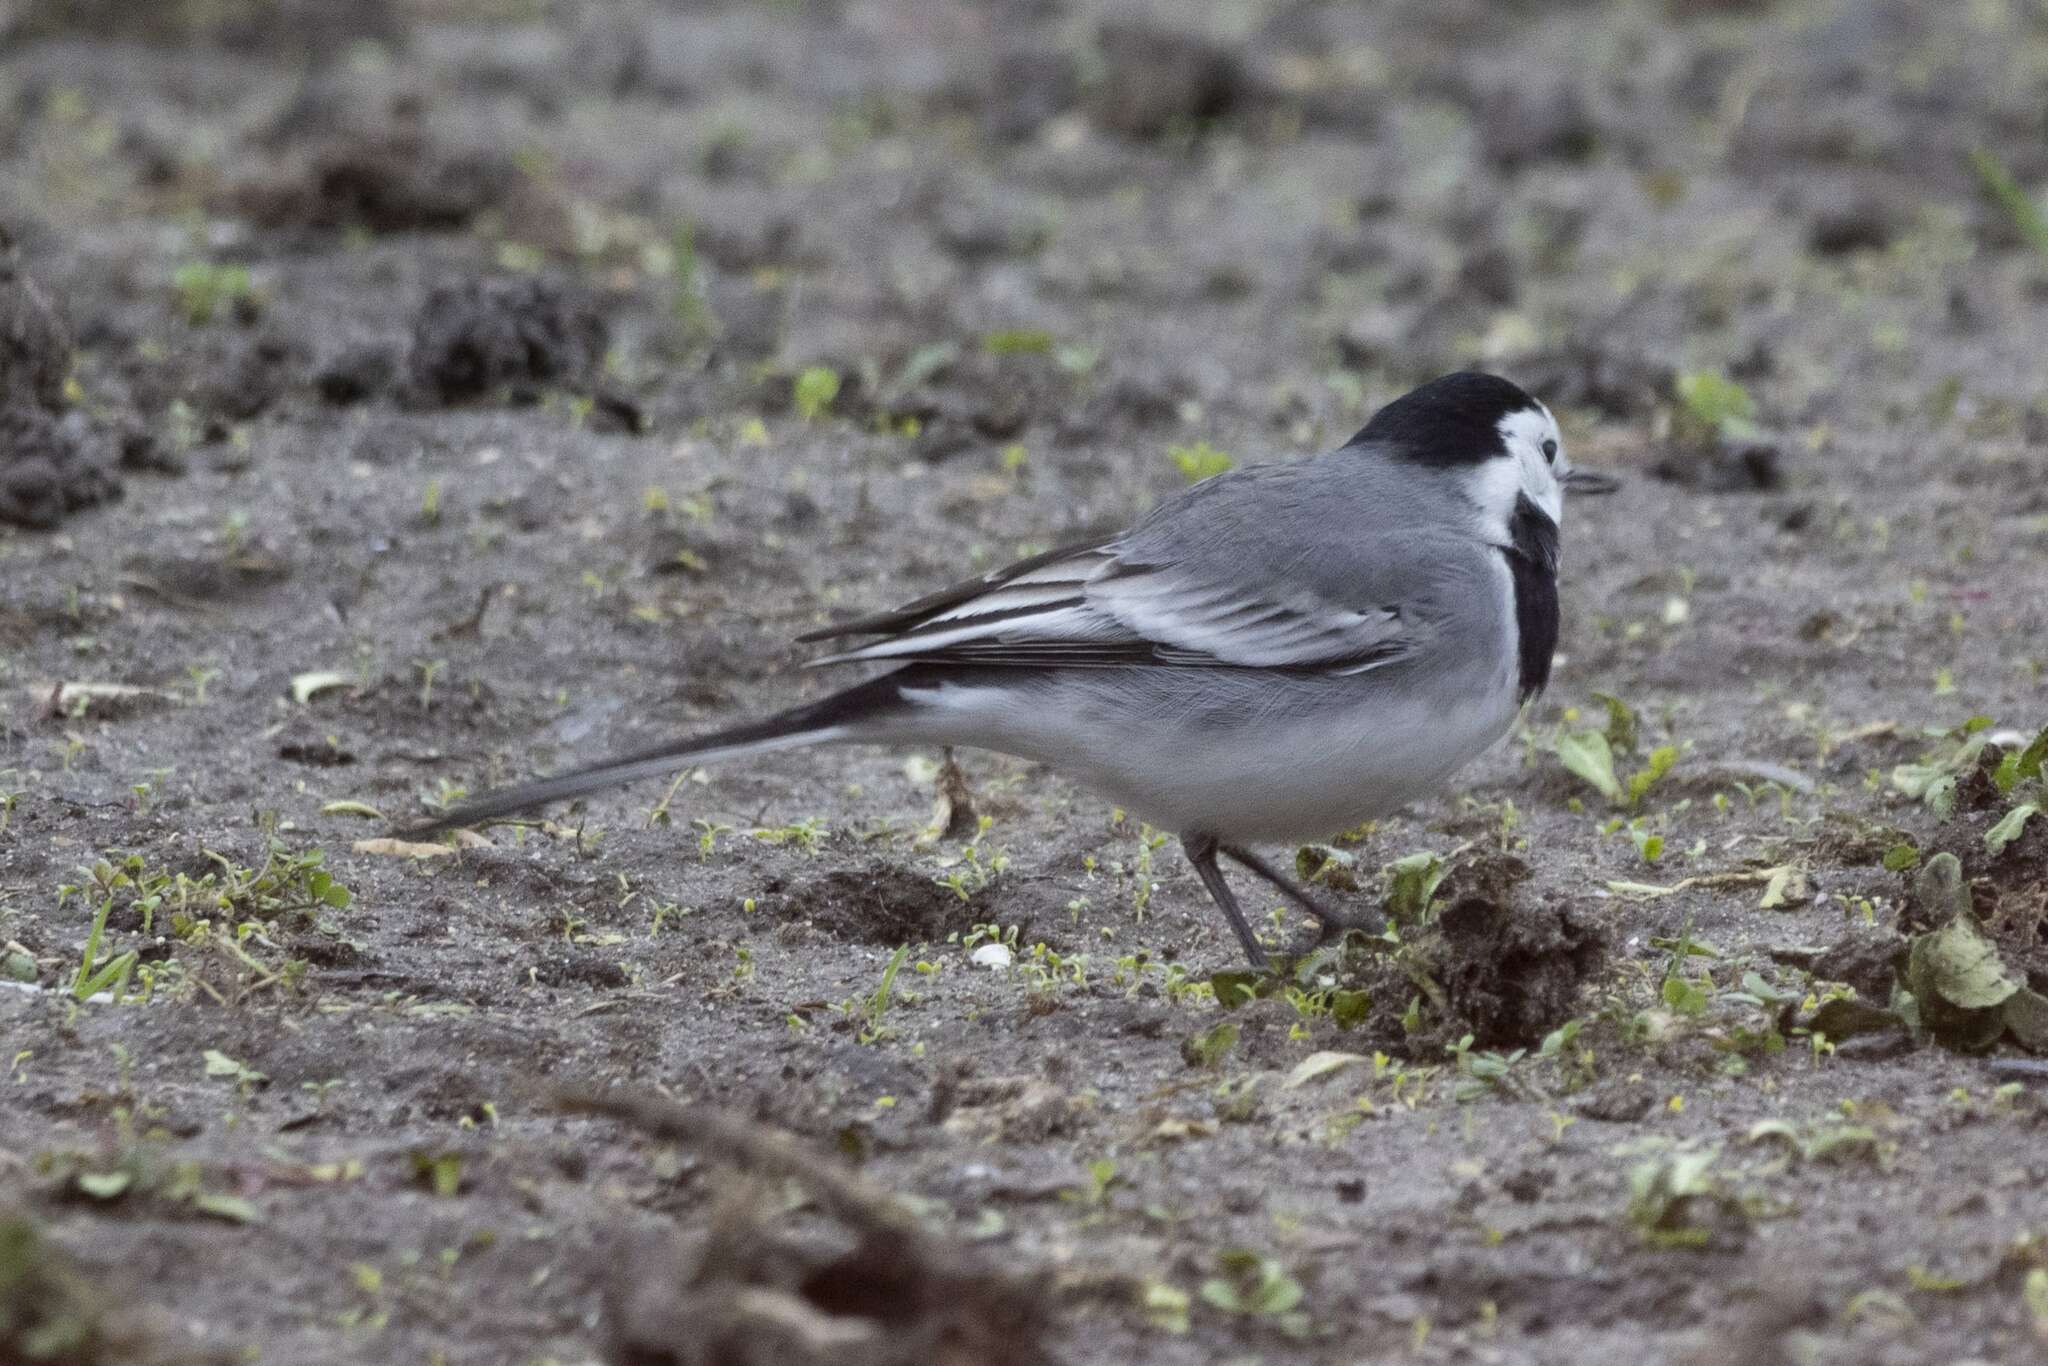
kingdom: Animalia
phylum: Chordata
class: Aves
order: Passeriformes
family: Motacillidae
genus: Motacilla
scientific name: Motacilla alba
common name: White wagtail
